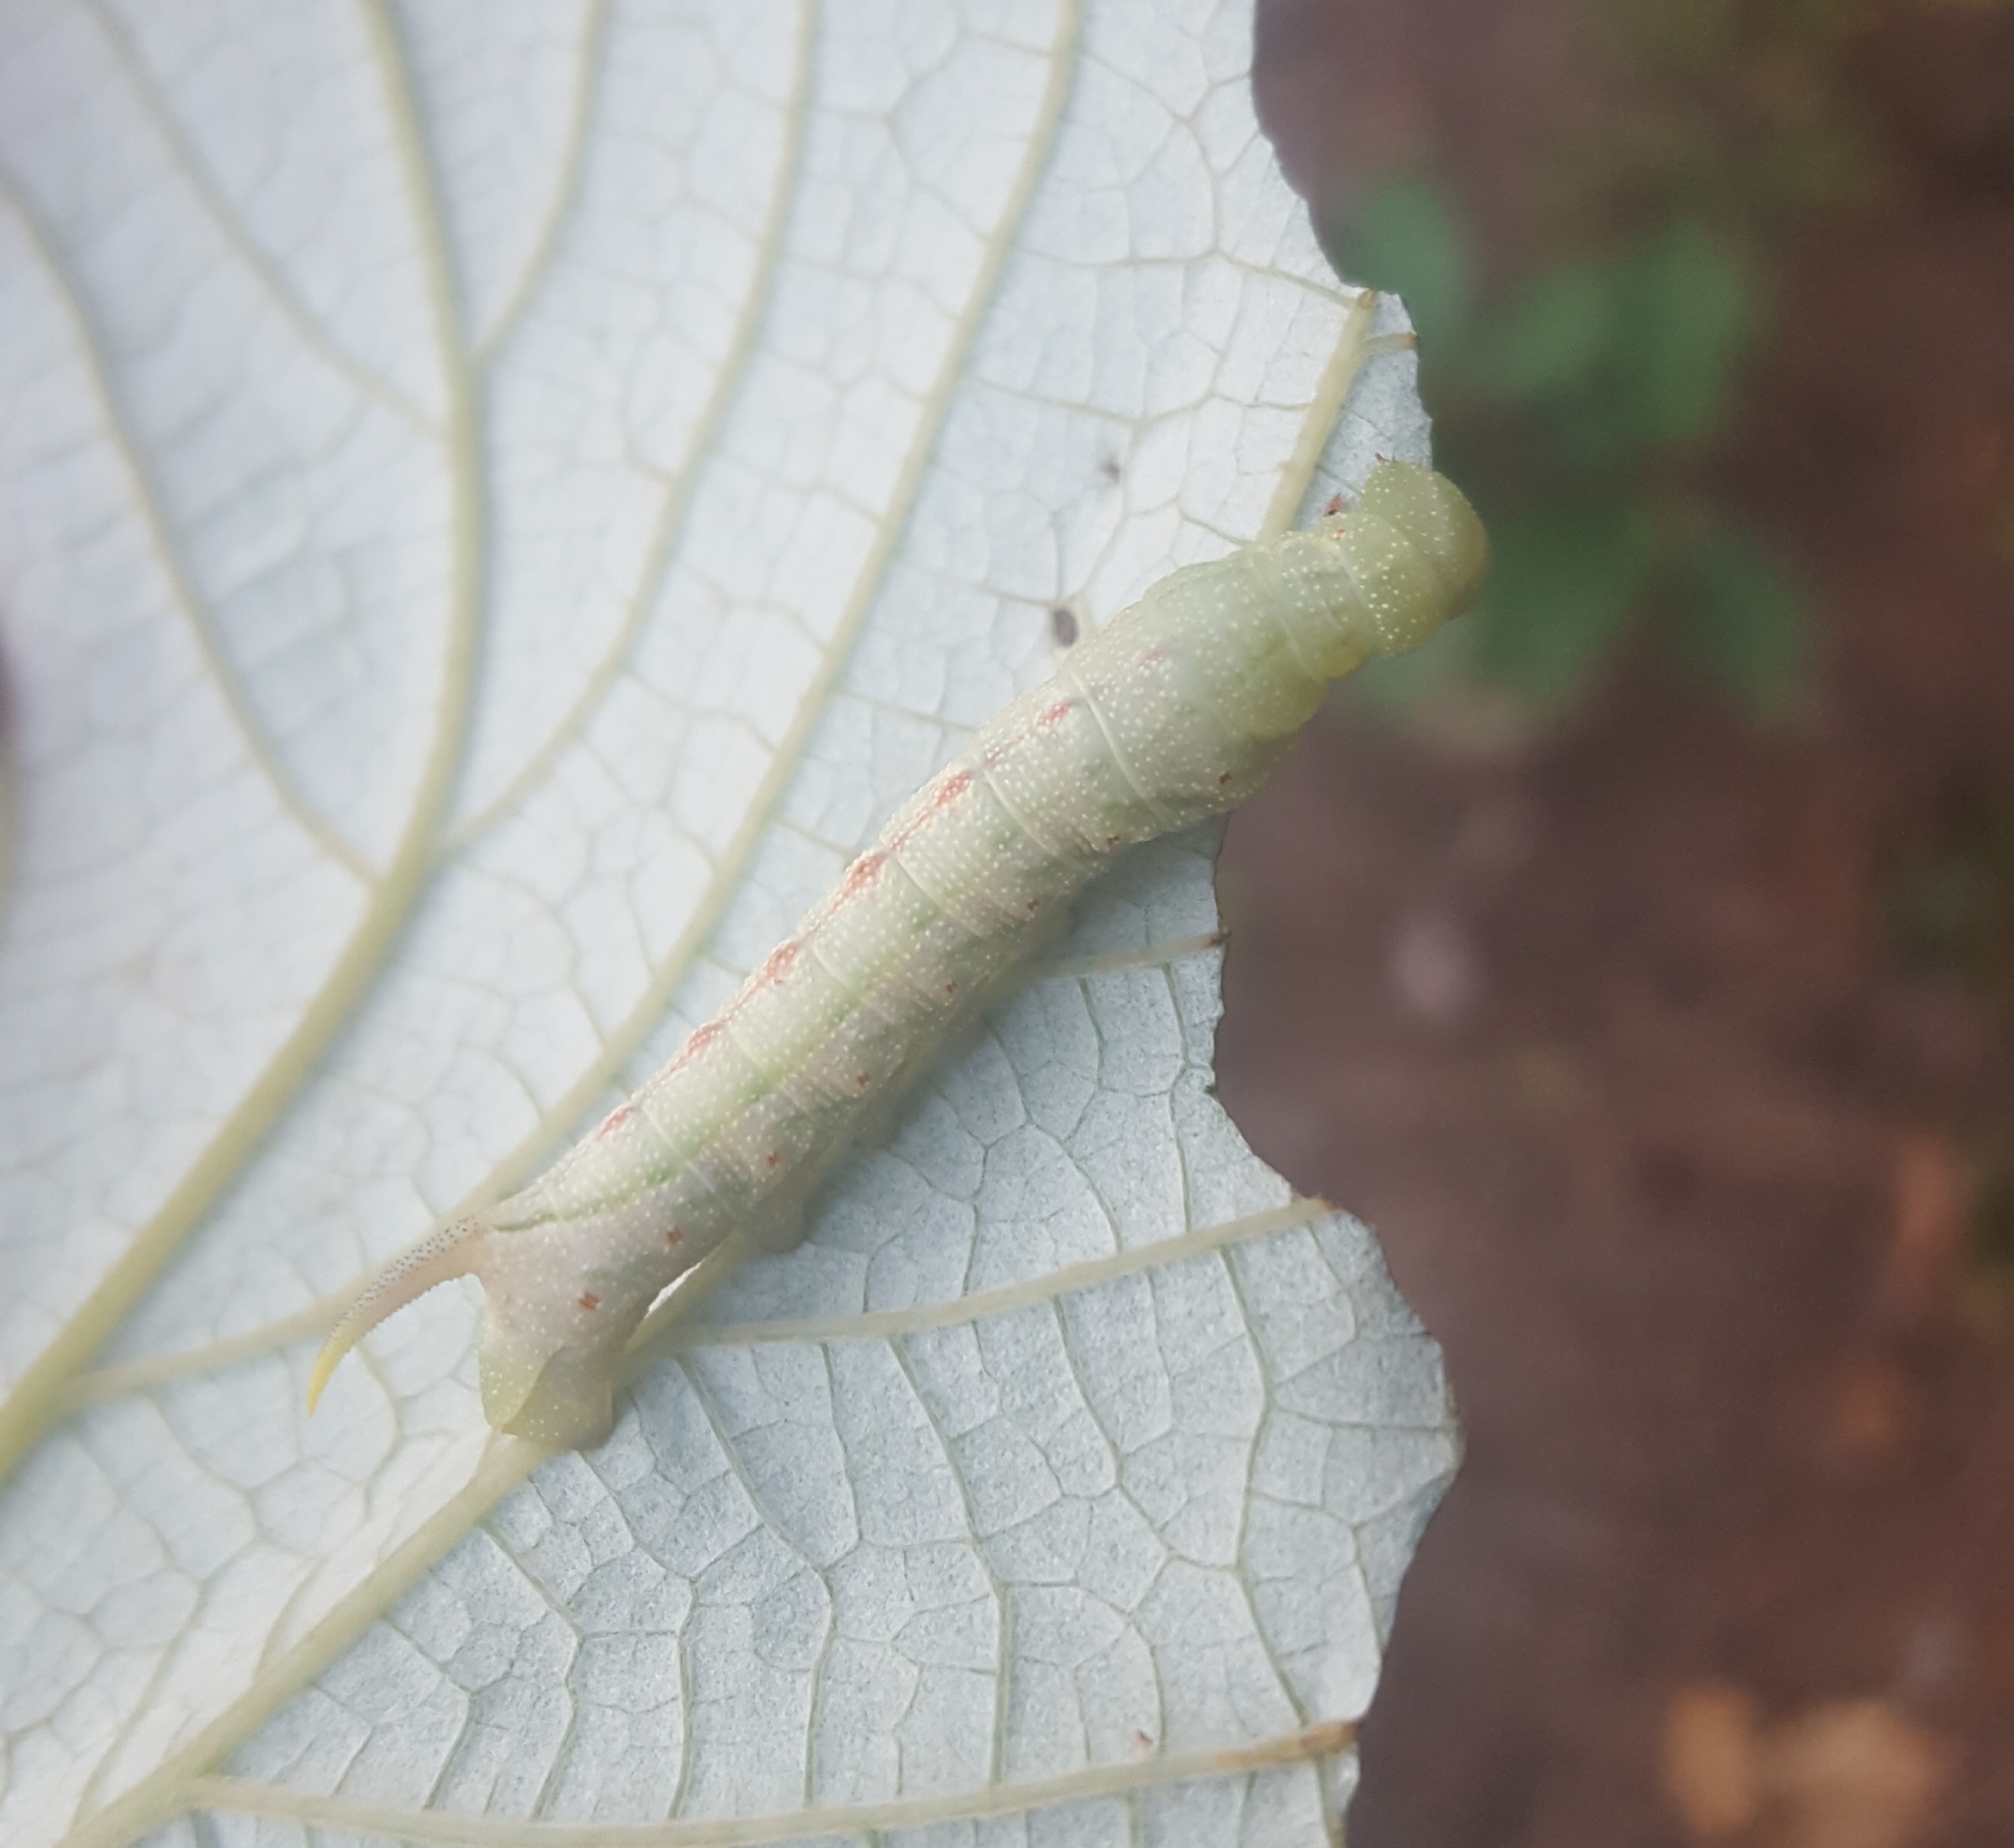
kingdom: Animalia
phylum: Arthropoda
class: Insecta
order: Lepidoptera
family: Sphingidae
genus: Darapsa
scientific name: Darapsa myron
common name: Hog sphinx
